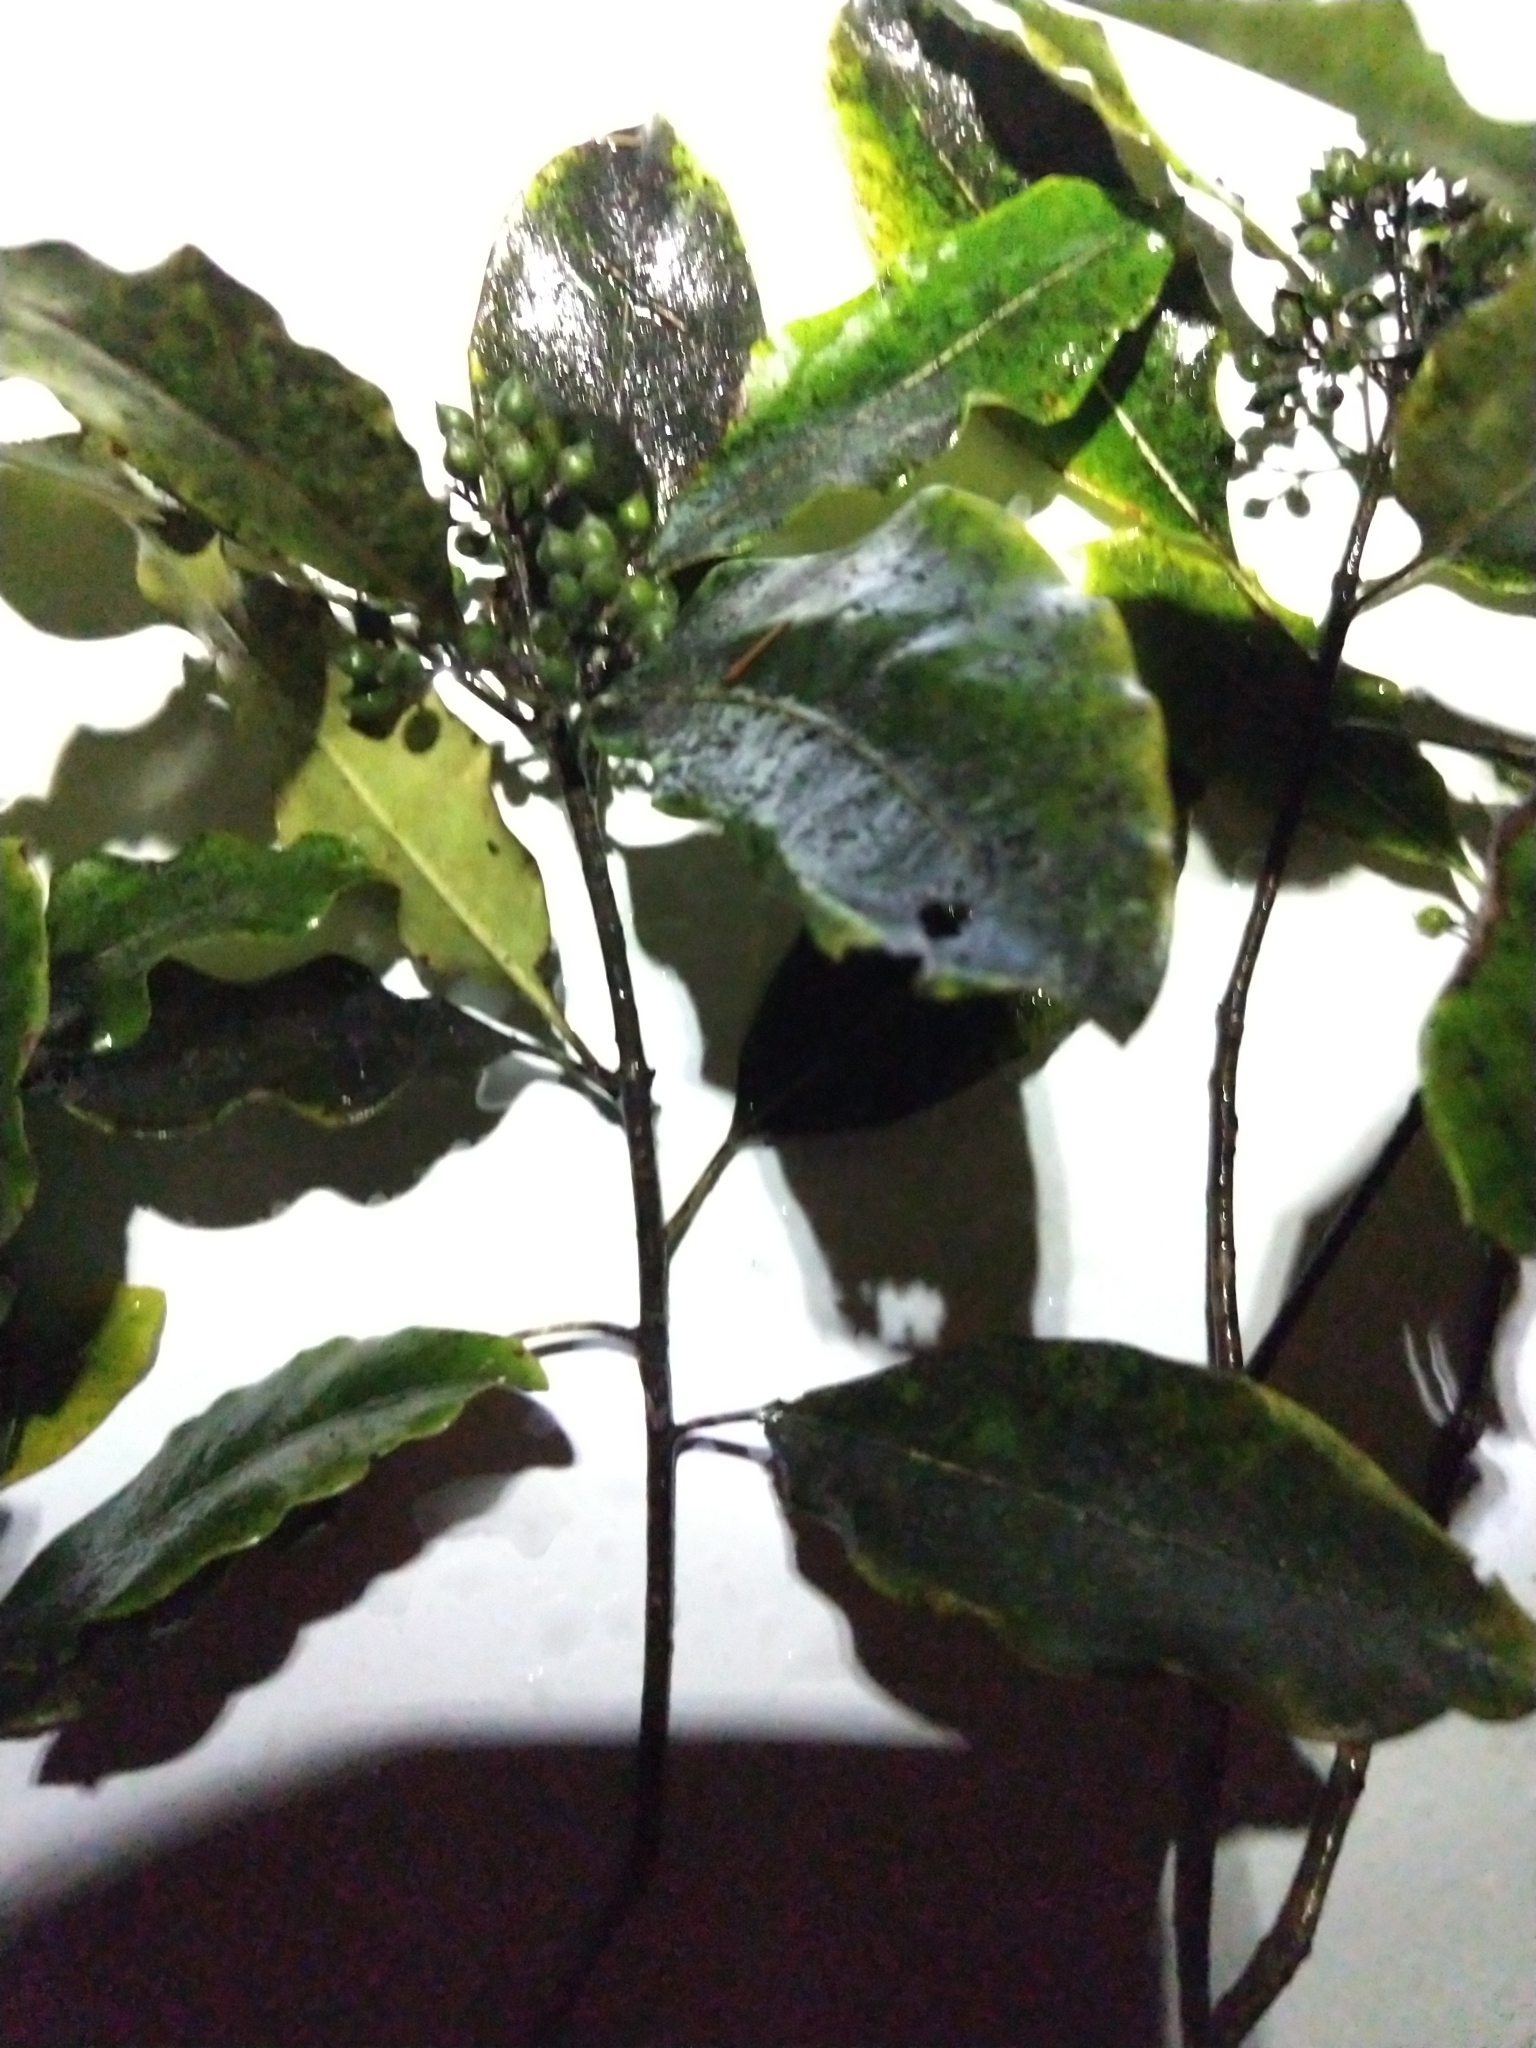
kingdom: Plantae
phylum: Tracheophyta
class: Magnoliopsida
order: Apiales
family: Pittosporaceae
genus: Pittosporum
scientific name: Pittosporum eugenioides
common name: Lemonwood
